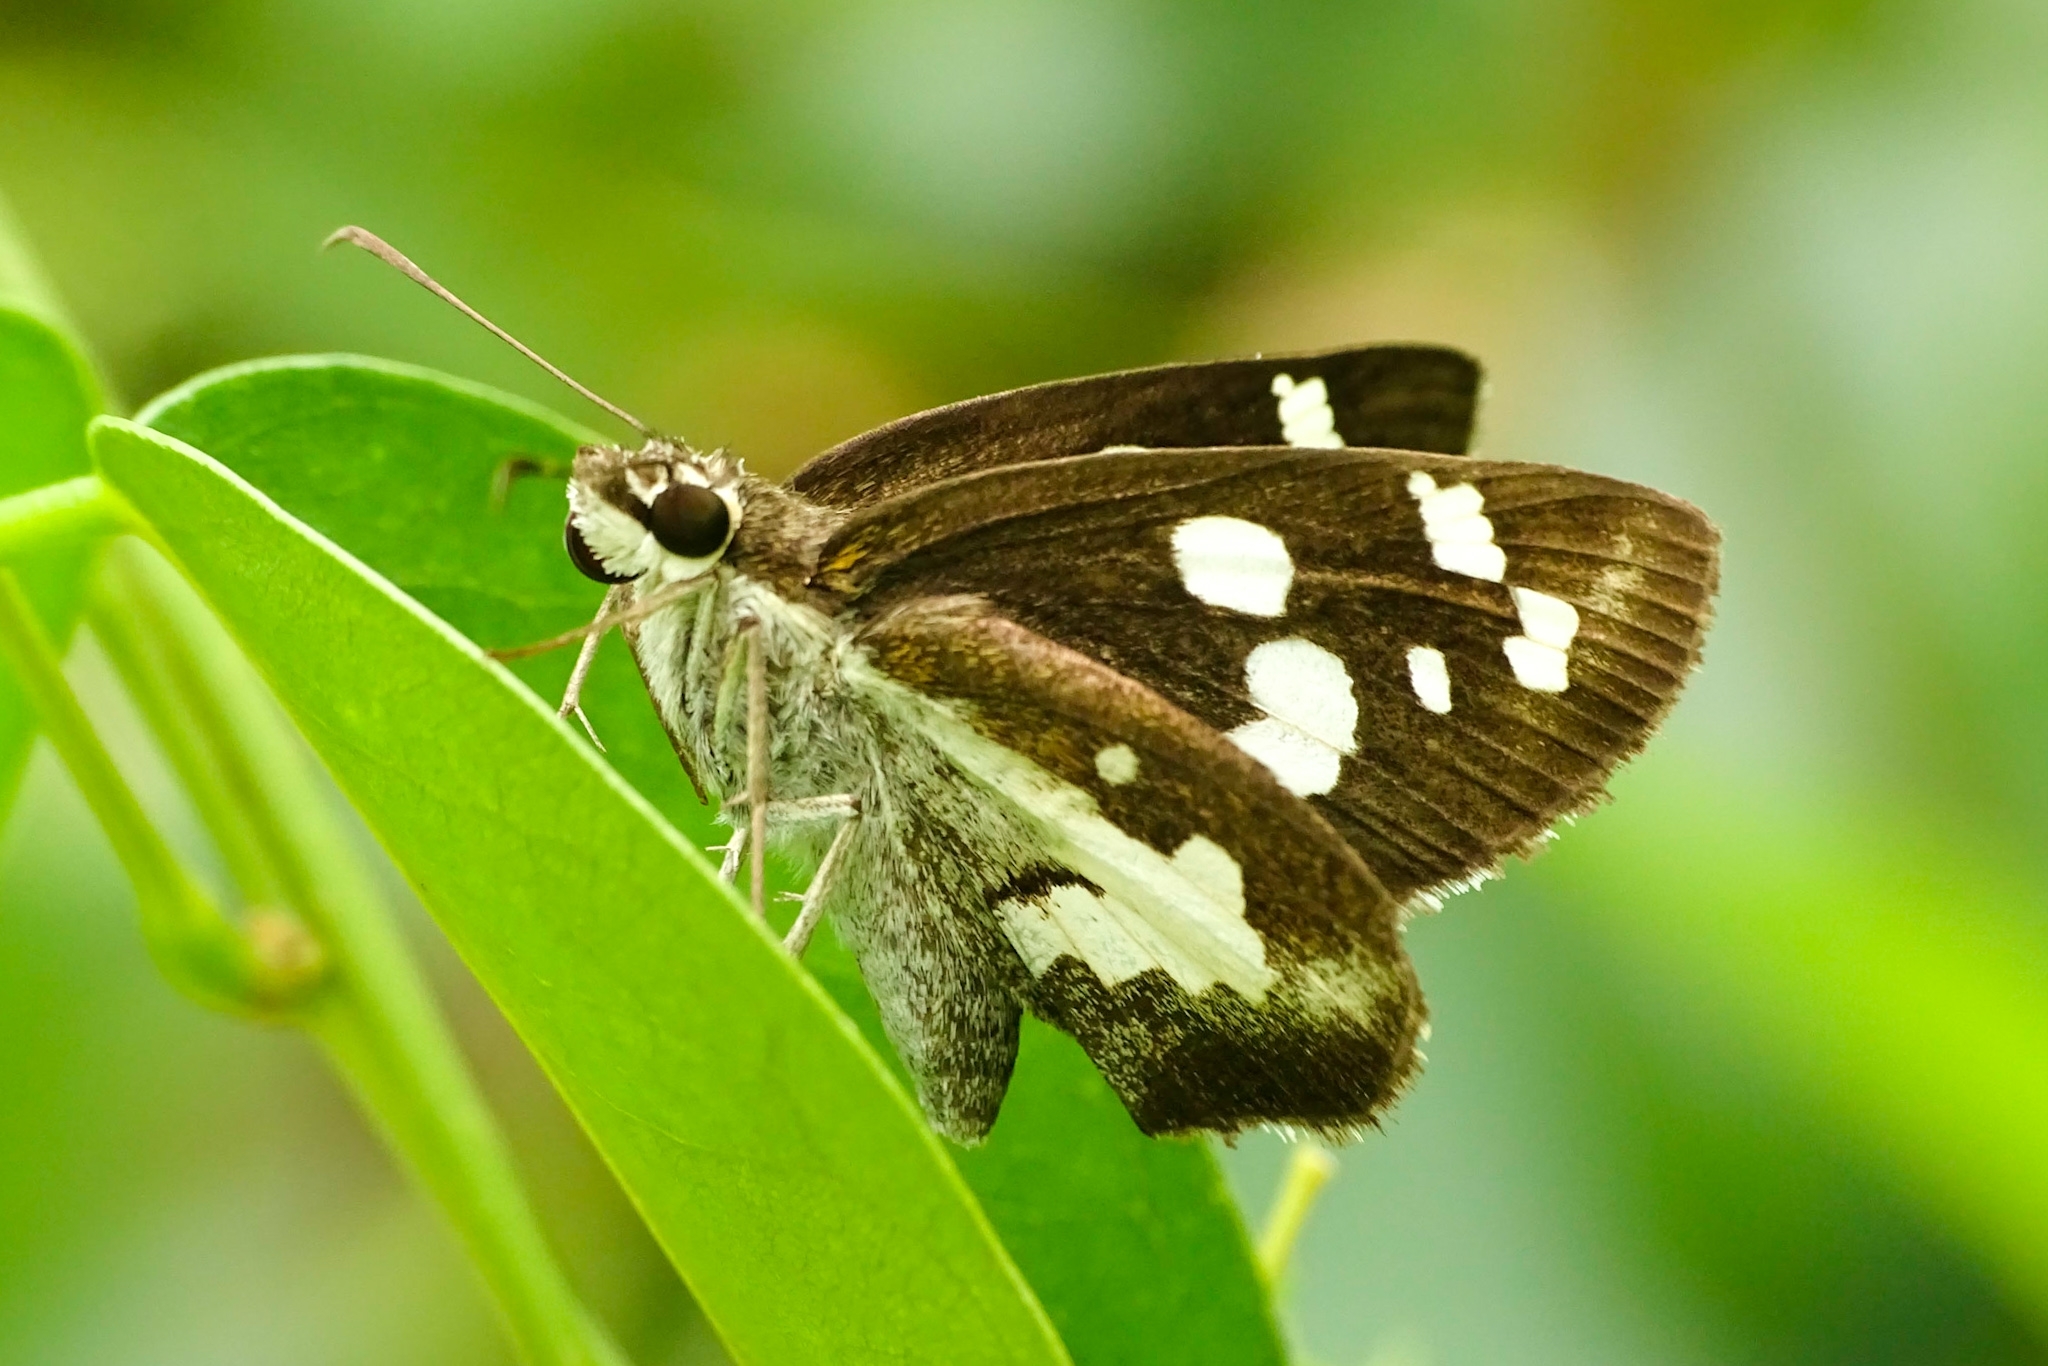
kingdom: Animalia
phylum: Arthropoda
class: Insecta
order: Lepidoptera
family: Hesperiidae
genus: Udaspes
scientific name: Udaspes folus
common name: Grass demon
